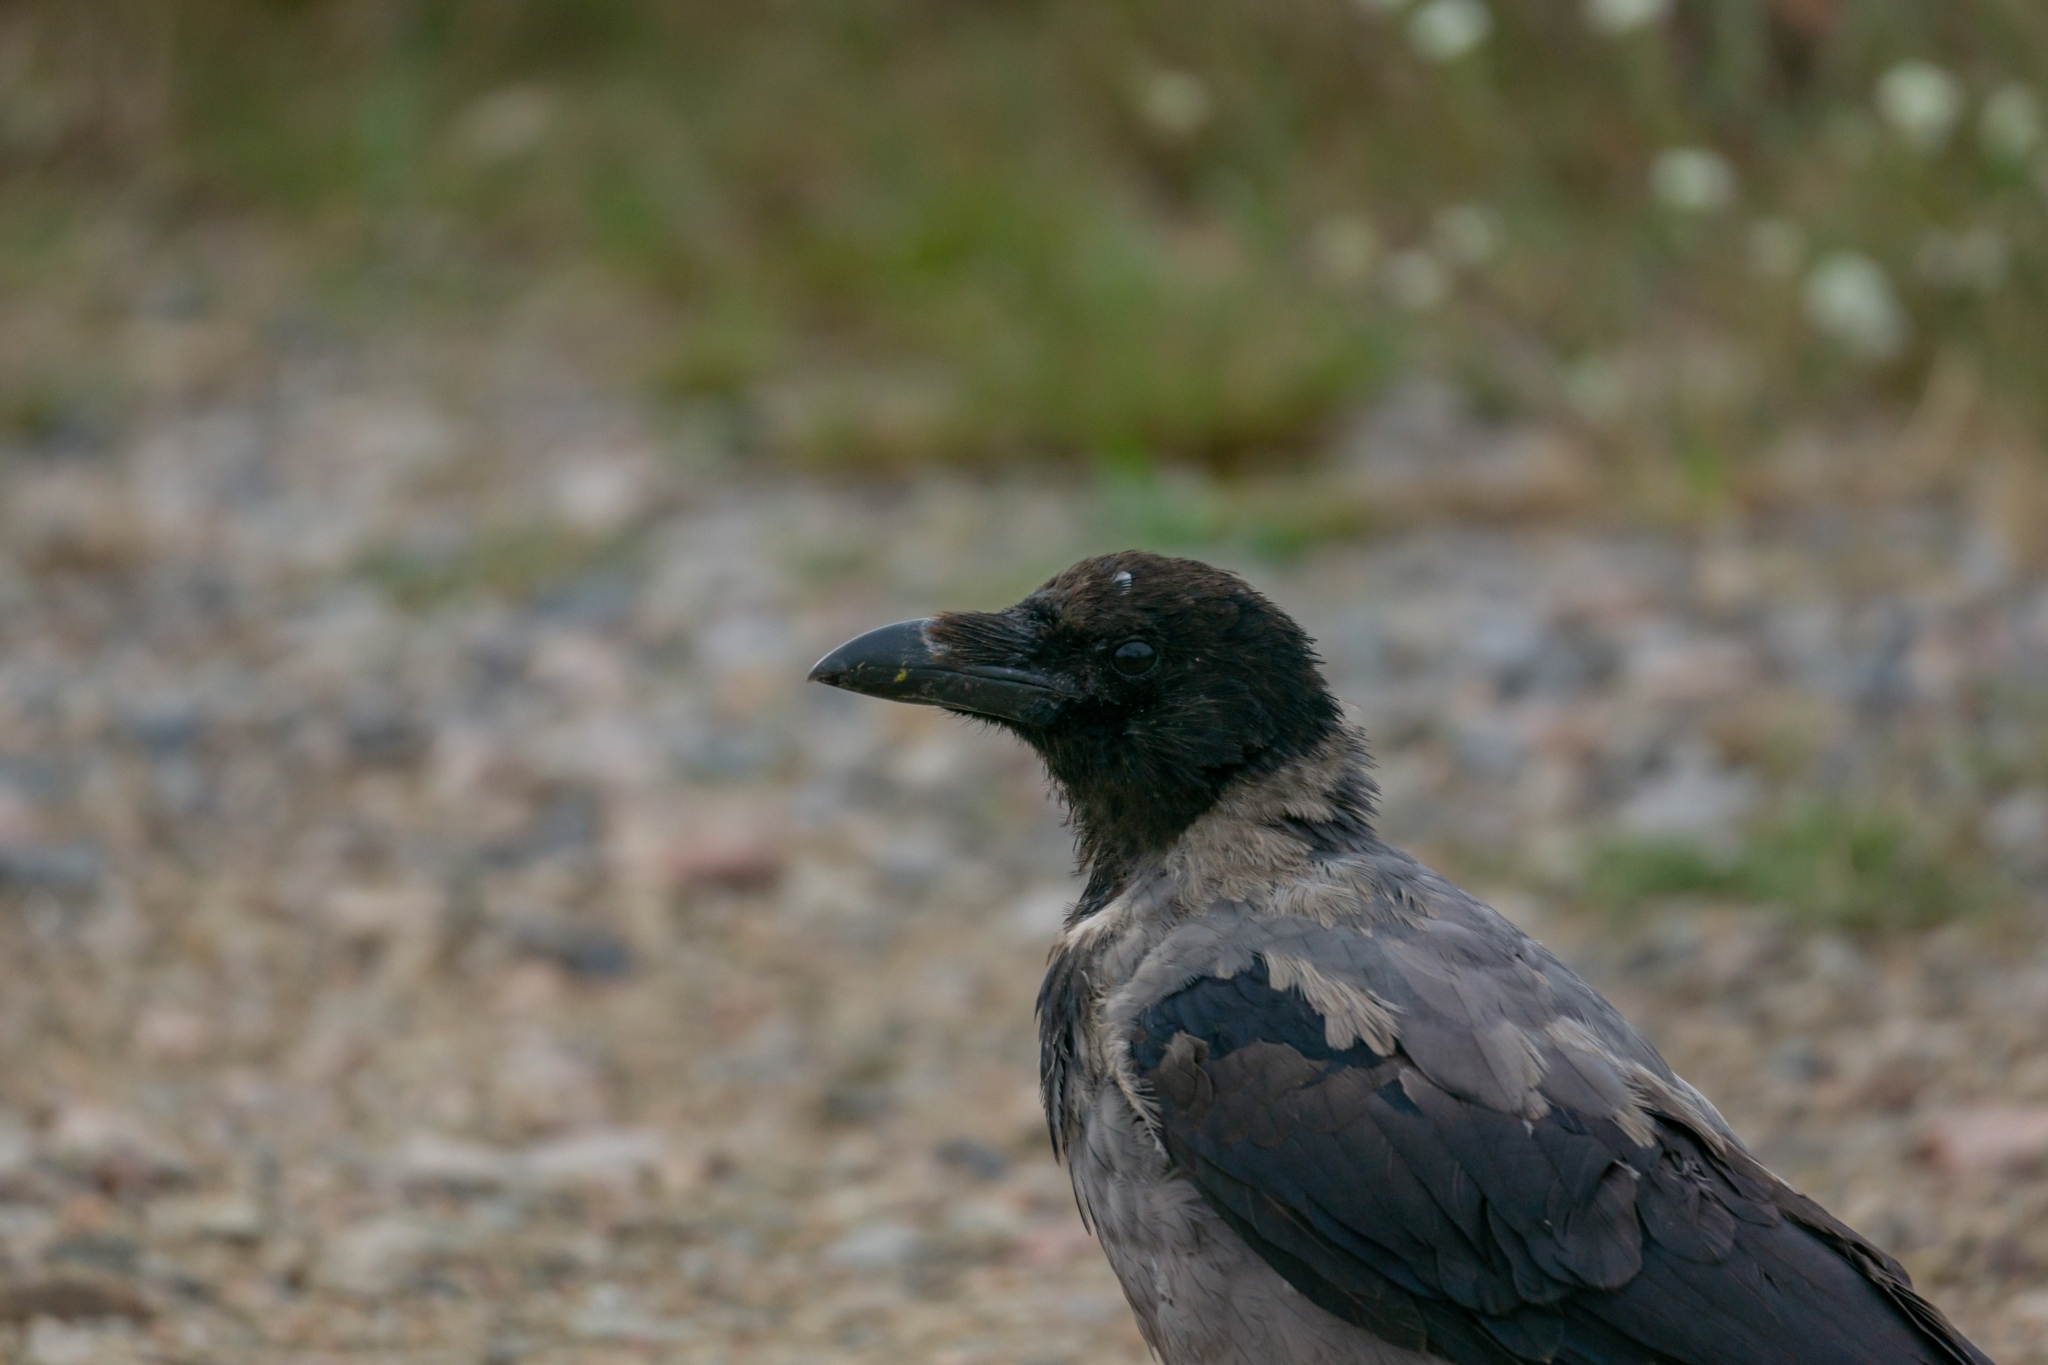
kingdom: Animalia
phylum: Chordata
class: Aves
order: Passeriformes
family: Corvidae
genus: Corvus
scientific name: Corvus cornix
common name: Hooded crow
